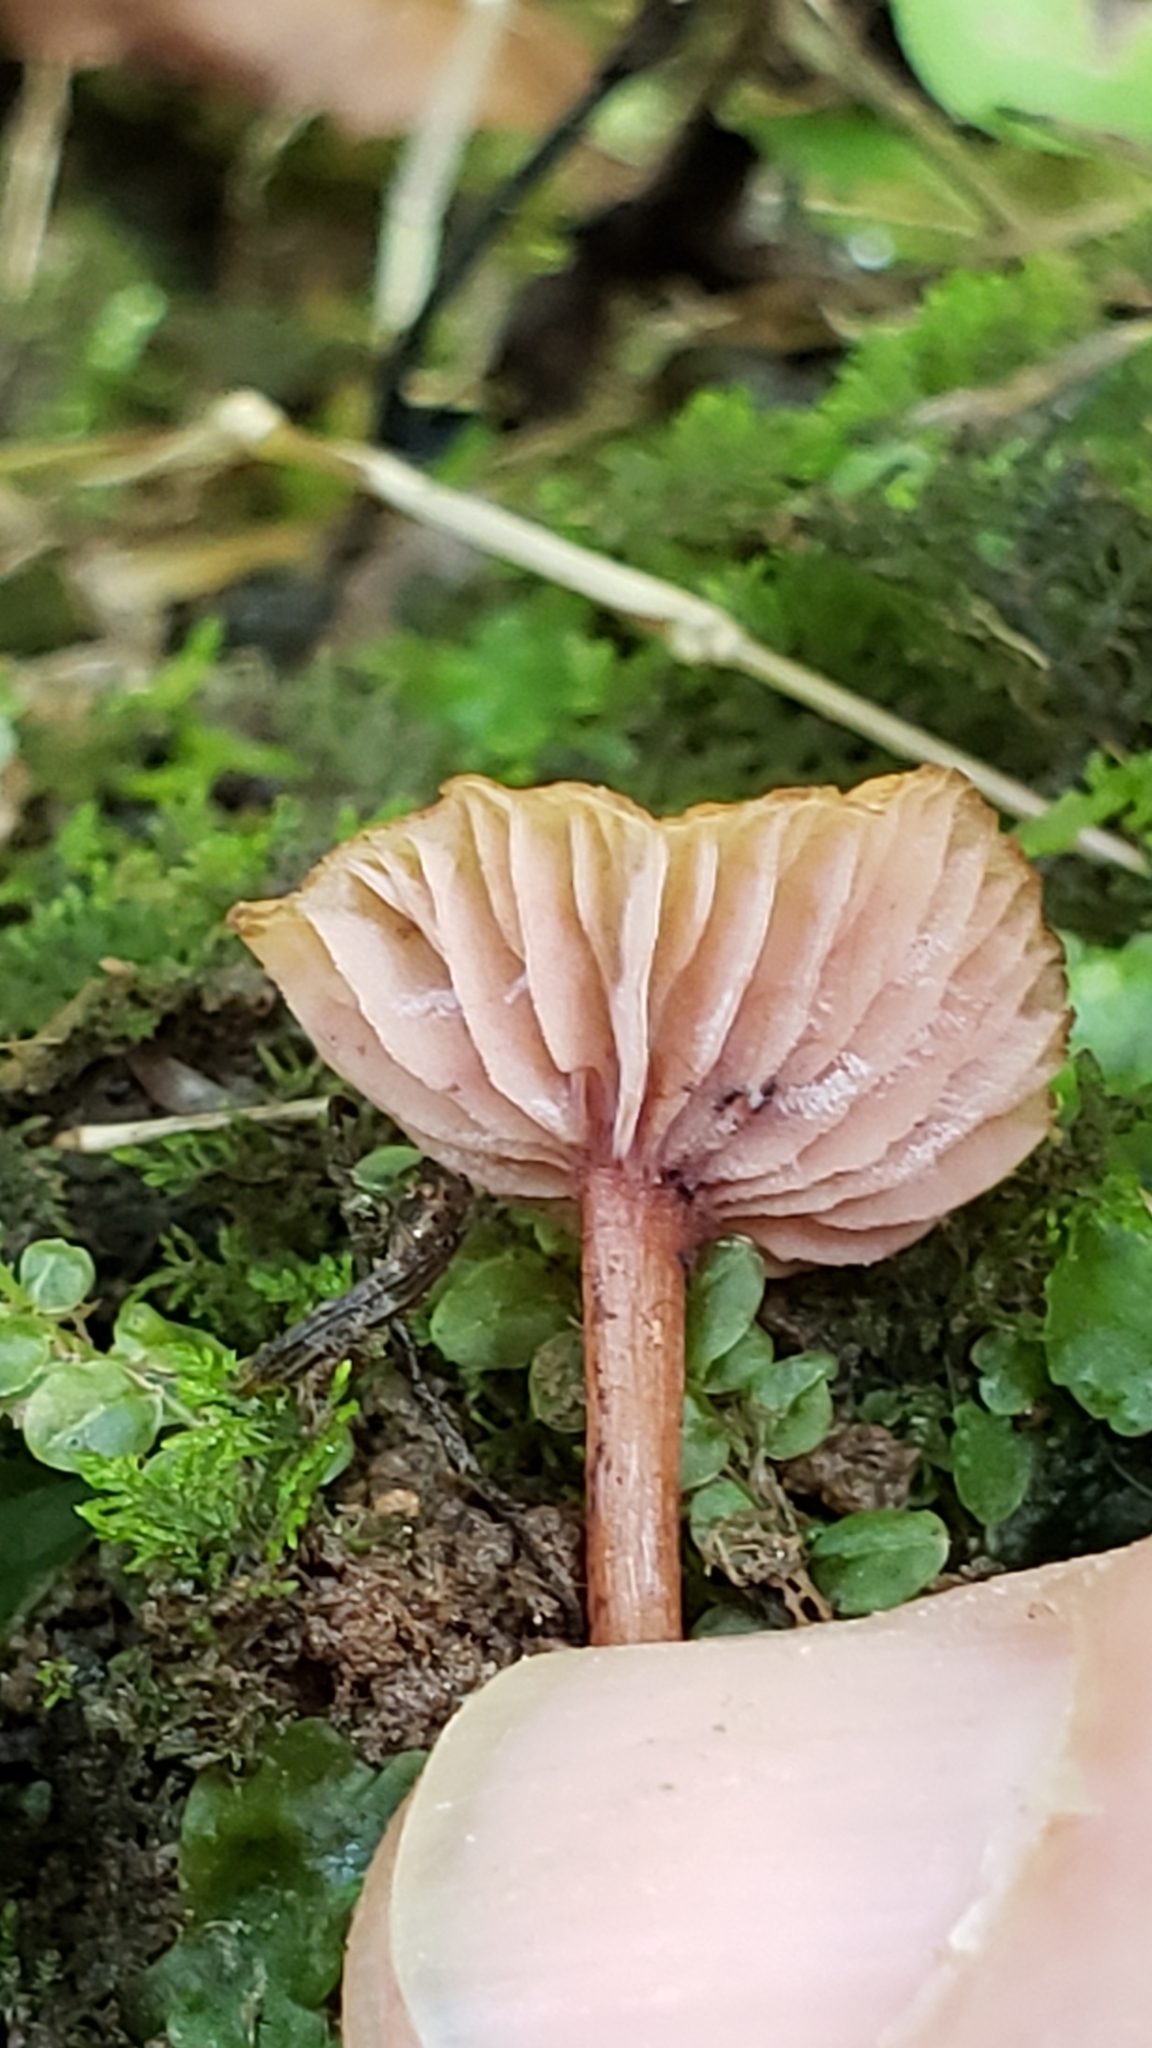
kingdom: Fungi
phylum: Basidiomycota
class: Agaricomycetes
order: Agaricales
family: Hydnangiaceae
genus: Laccaria
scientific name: Laccaria tortilis
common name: Twisted deceiver
